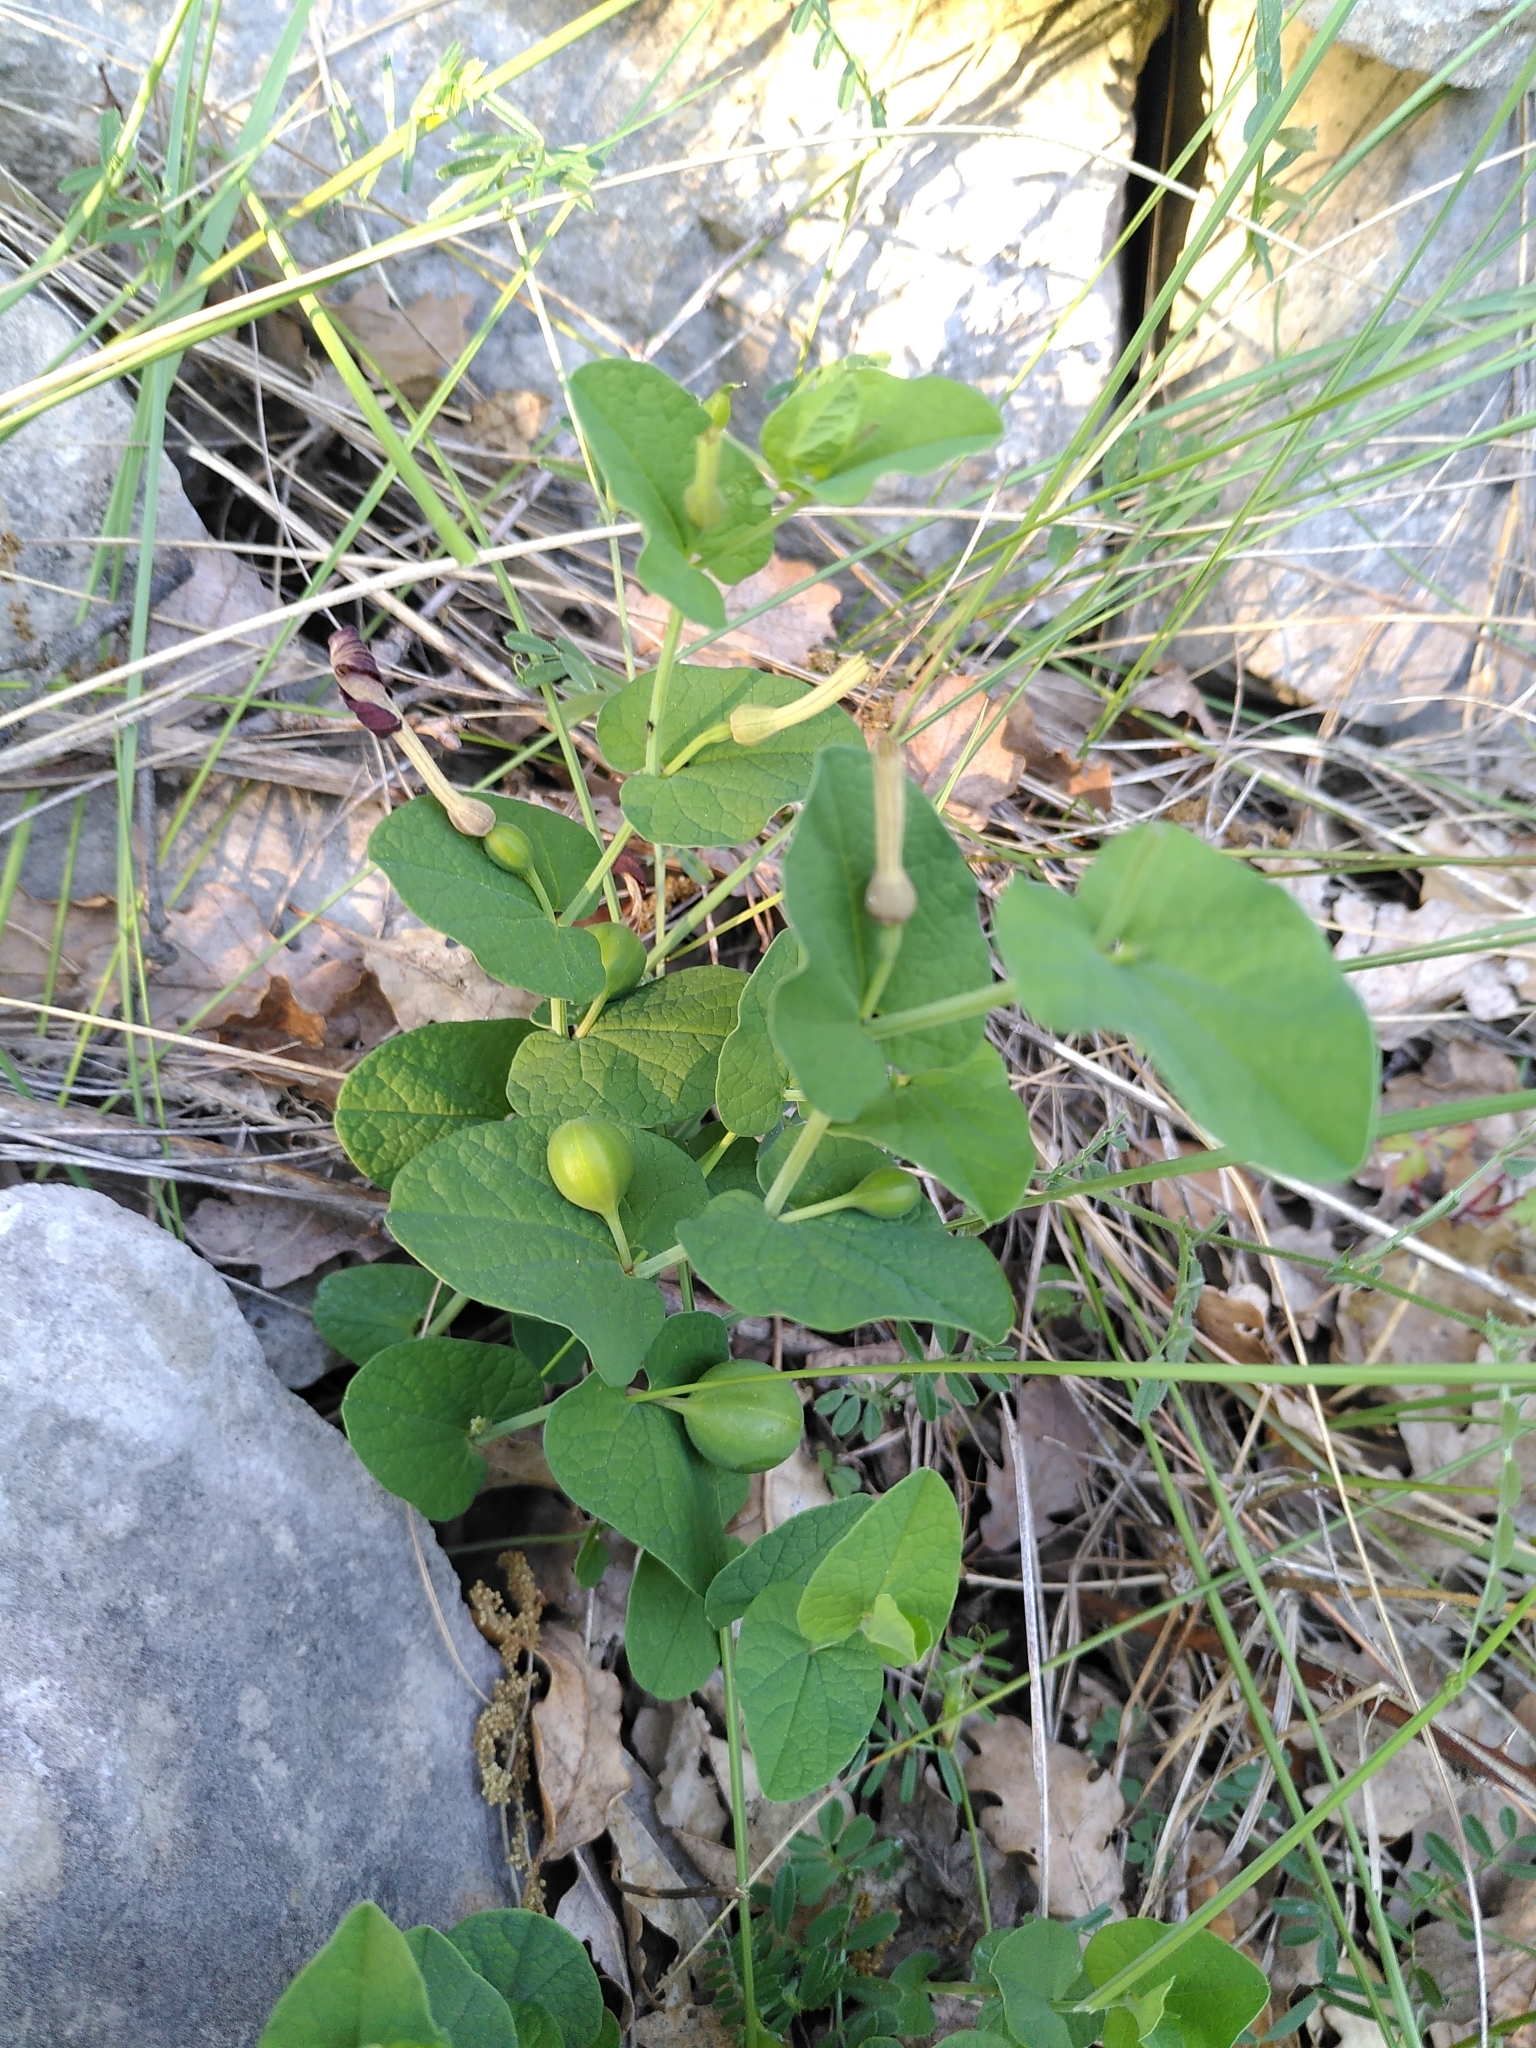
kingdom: Plantae
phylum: Tracheophyta
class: Magnoliopsida
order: Piperales
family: Aristolochiaceae
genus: Aristolochia
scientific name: Aristolochia rotunda
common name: Smearwort
